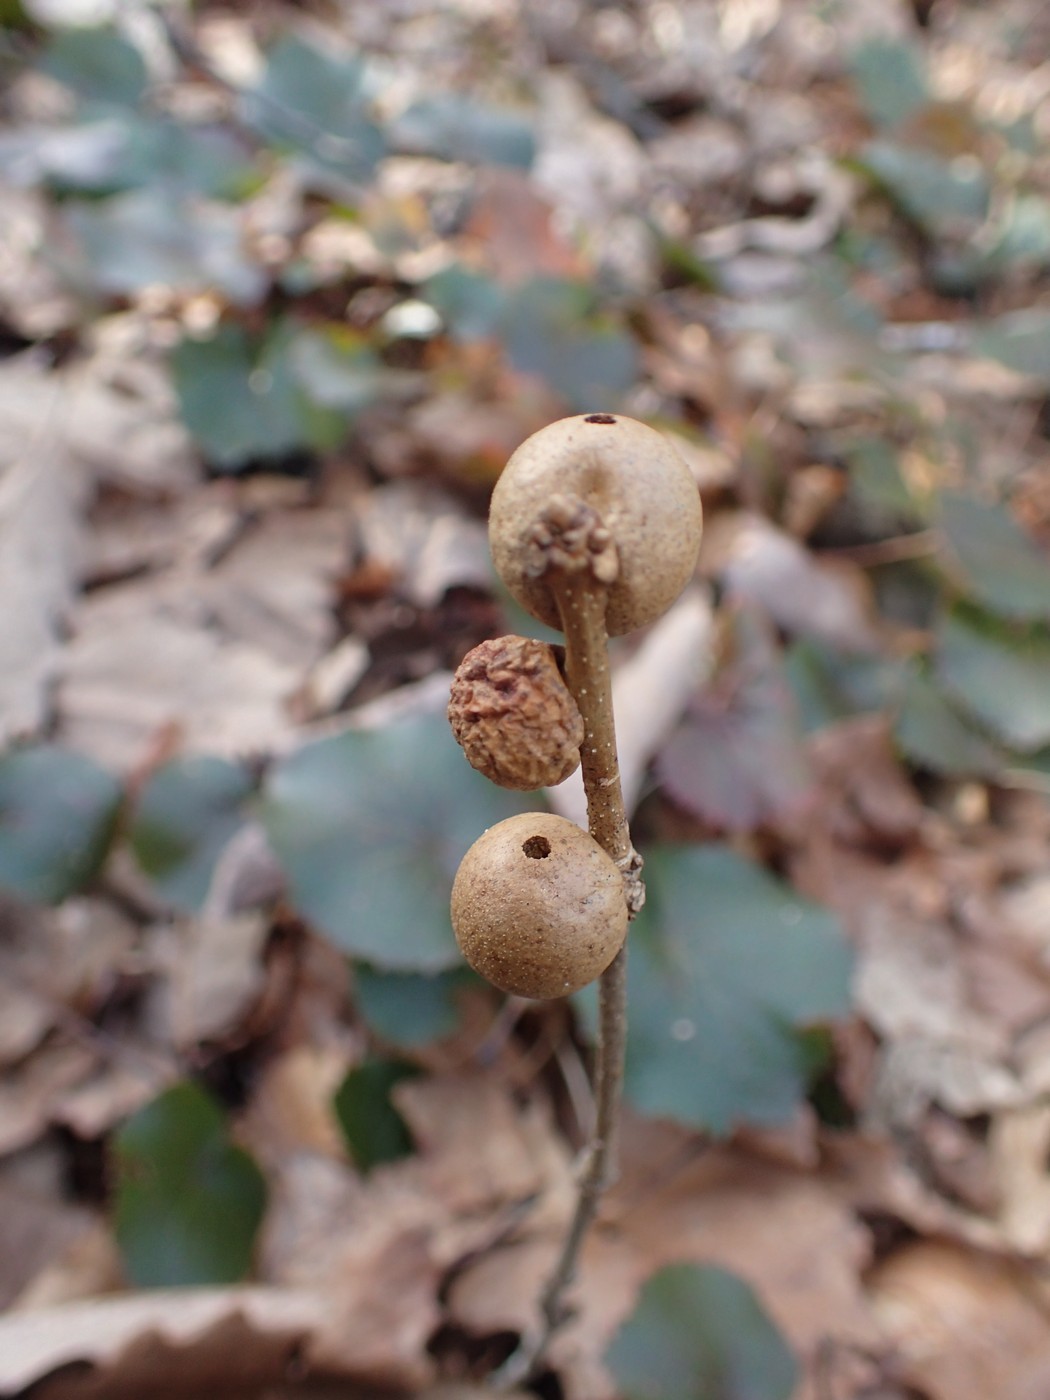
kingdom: Animalia
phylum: Arthropoda
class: Insecta
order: Hymenoptera
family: Cynipidae
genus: Disholcaspis
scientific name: Disholcaspis quercusglobulus
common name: Round bullet gall wasp
